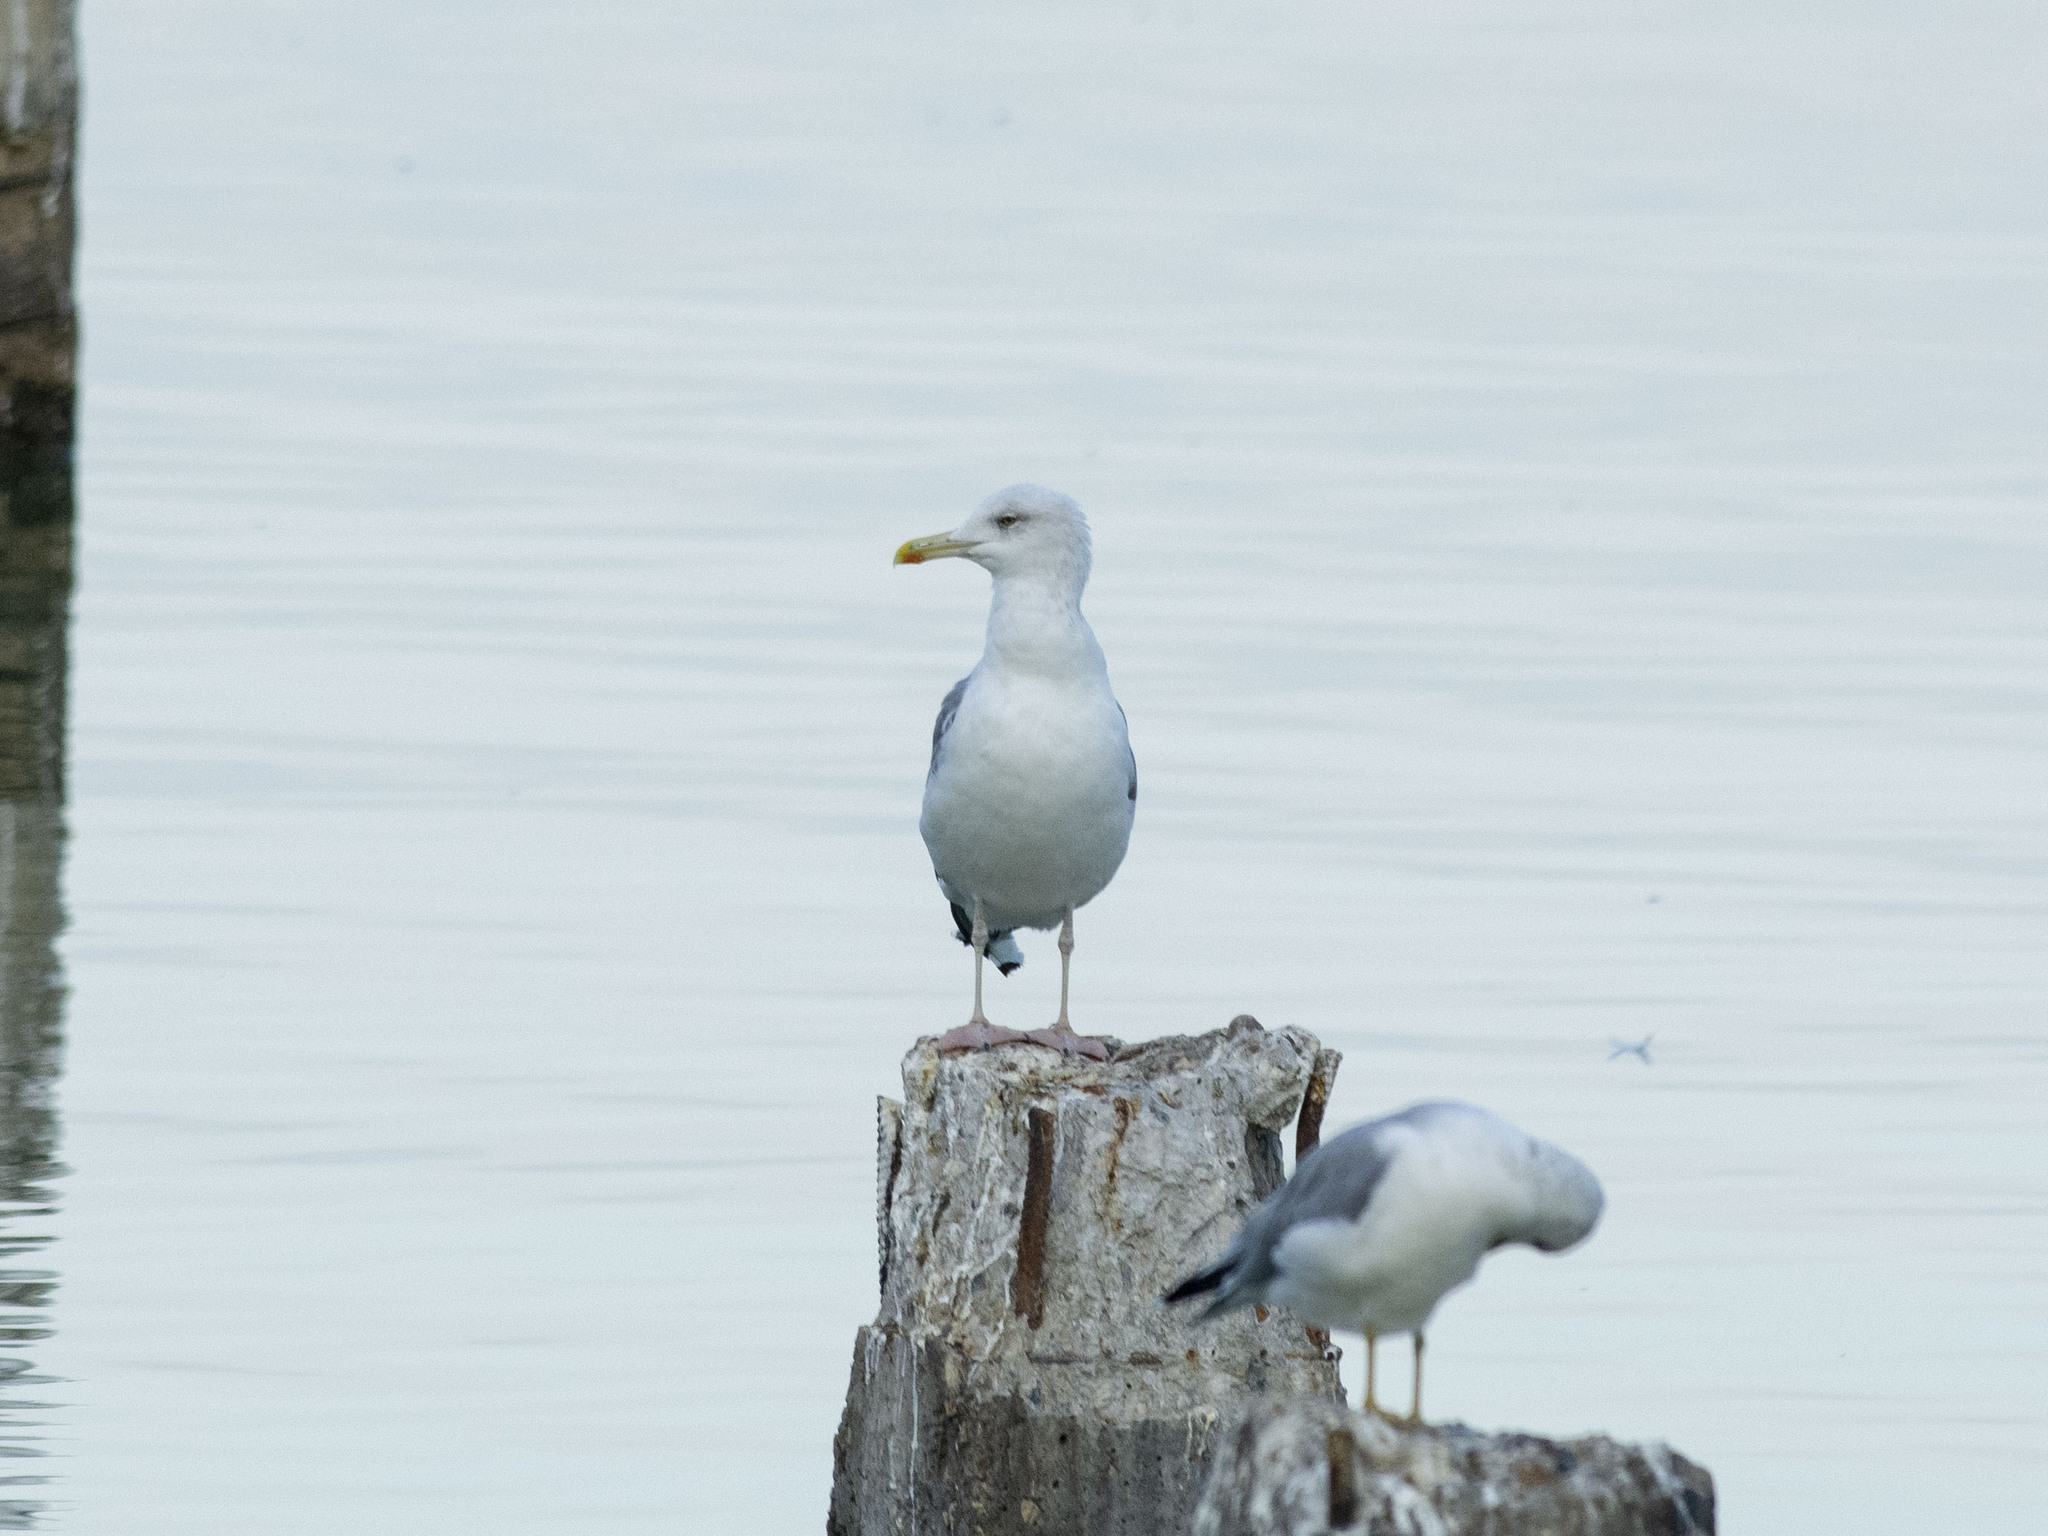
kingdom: Animalia
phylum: Chordata
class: Aves
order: Charadriiformes
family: Laridae
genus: Larus
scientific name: Larus argentatus
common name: Herring gull
